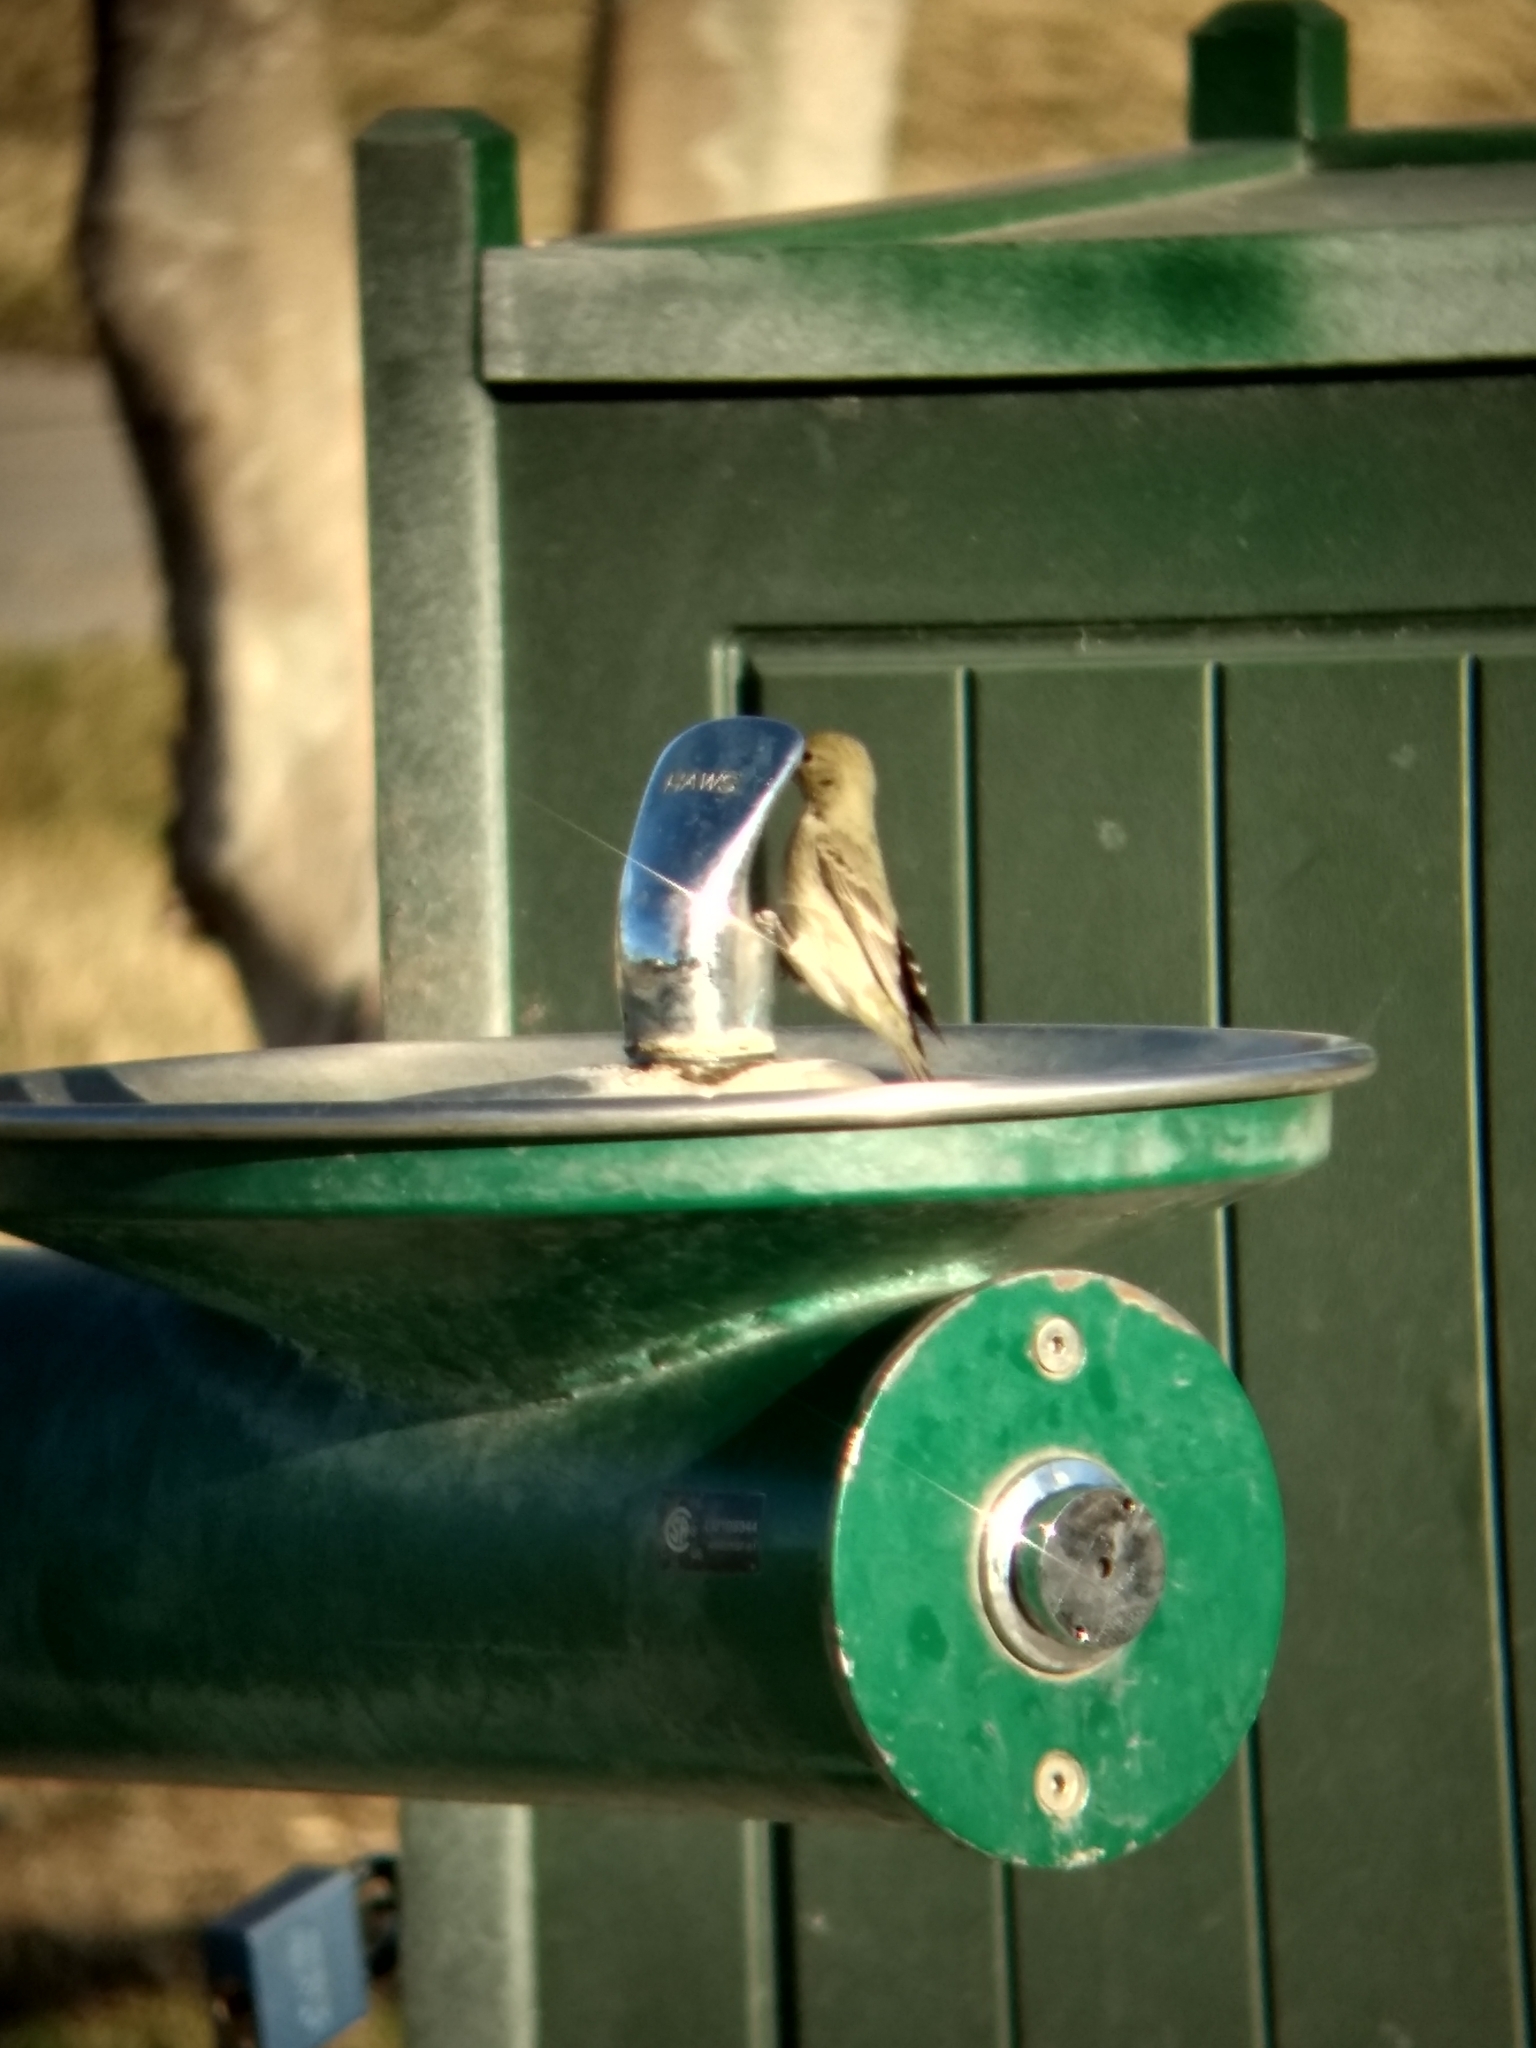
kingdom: Animalia
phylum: Chordata
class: Aves
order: Passeriformes
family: Fringillidae
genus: Spinus
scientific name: Spinus psaltria
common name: Lesser goldfinch
